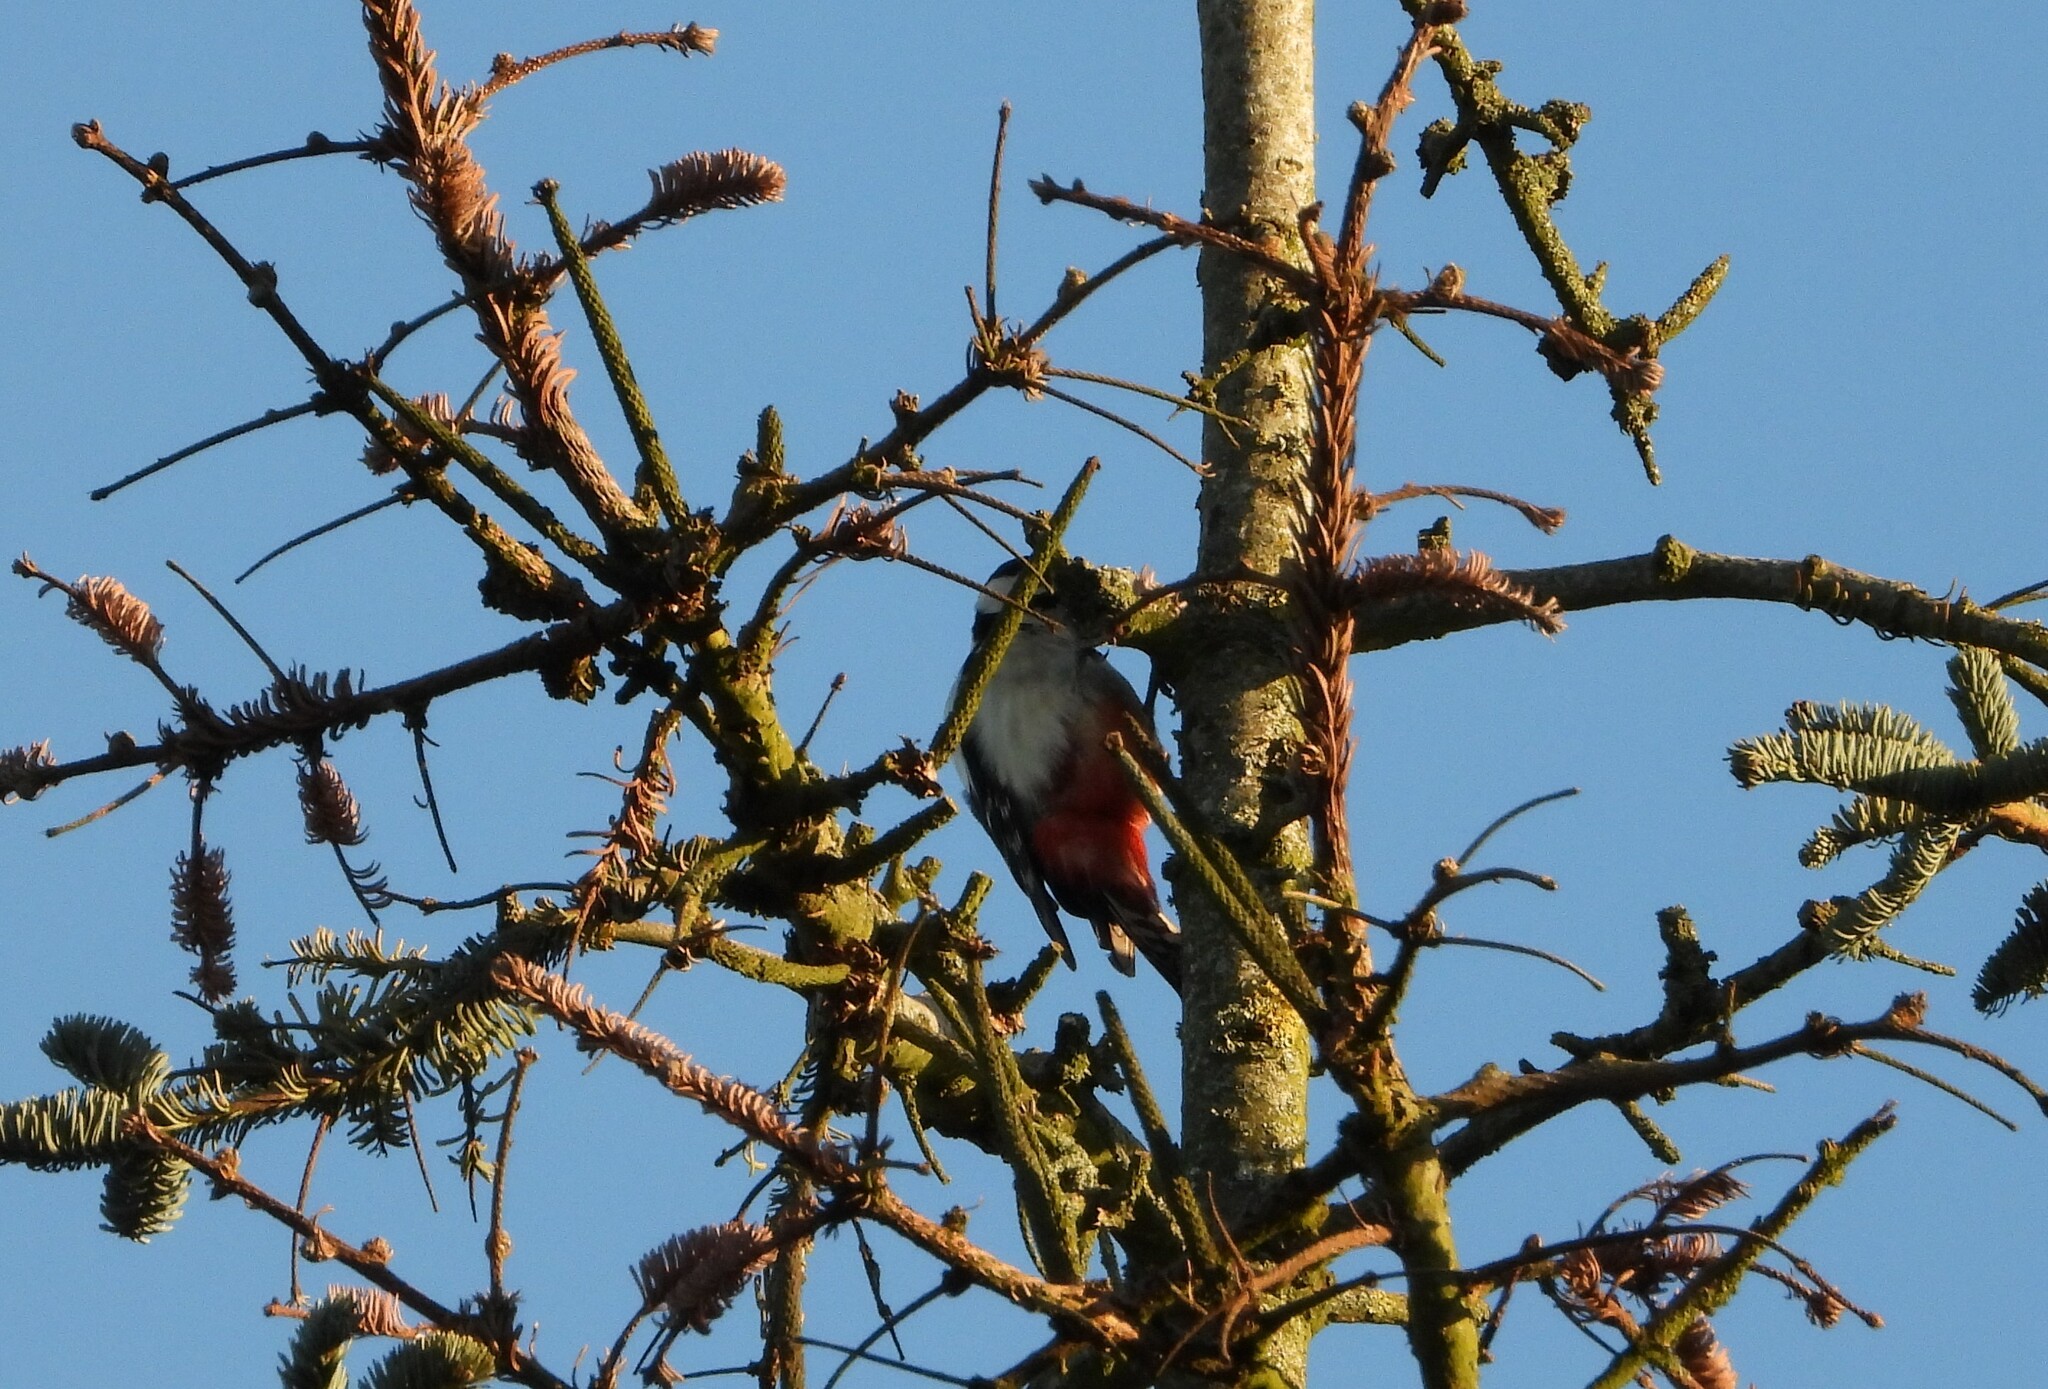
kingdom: Animalia
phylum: Chordata
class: Aves
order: Piciformes
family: Picidae
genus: Dendrocopos
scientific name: Dendrocopos major
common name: Great spotted woodpecker
